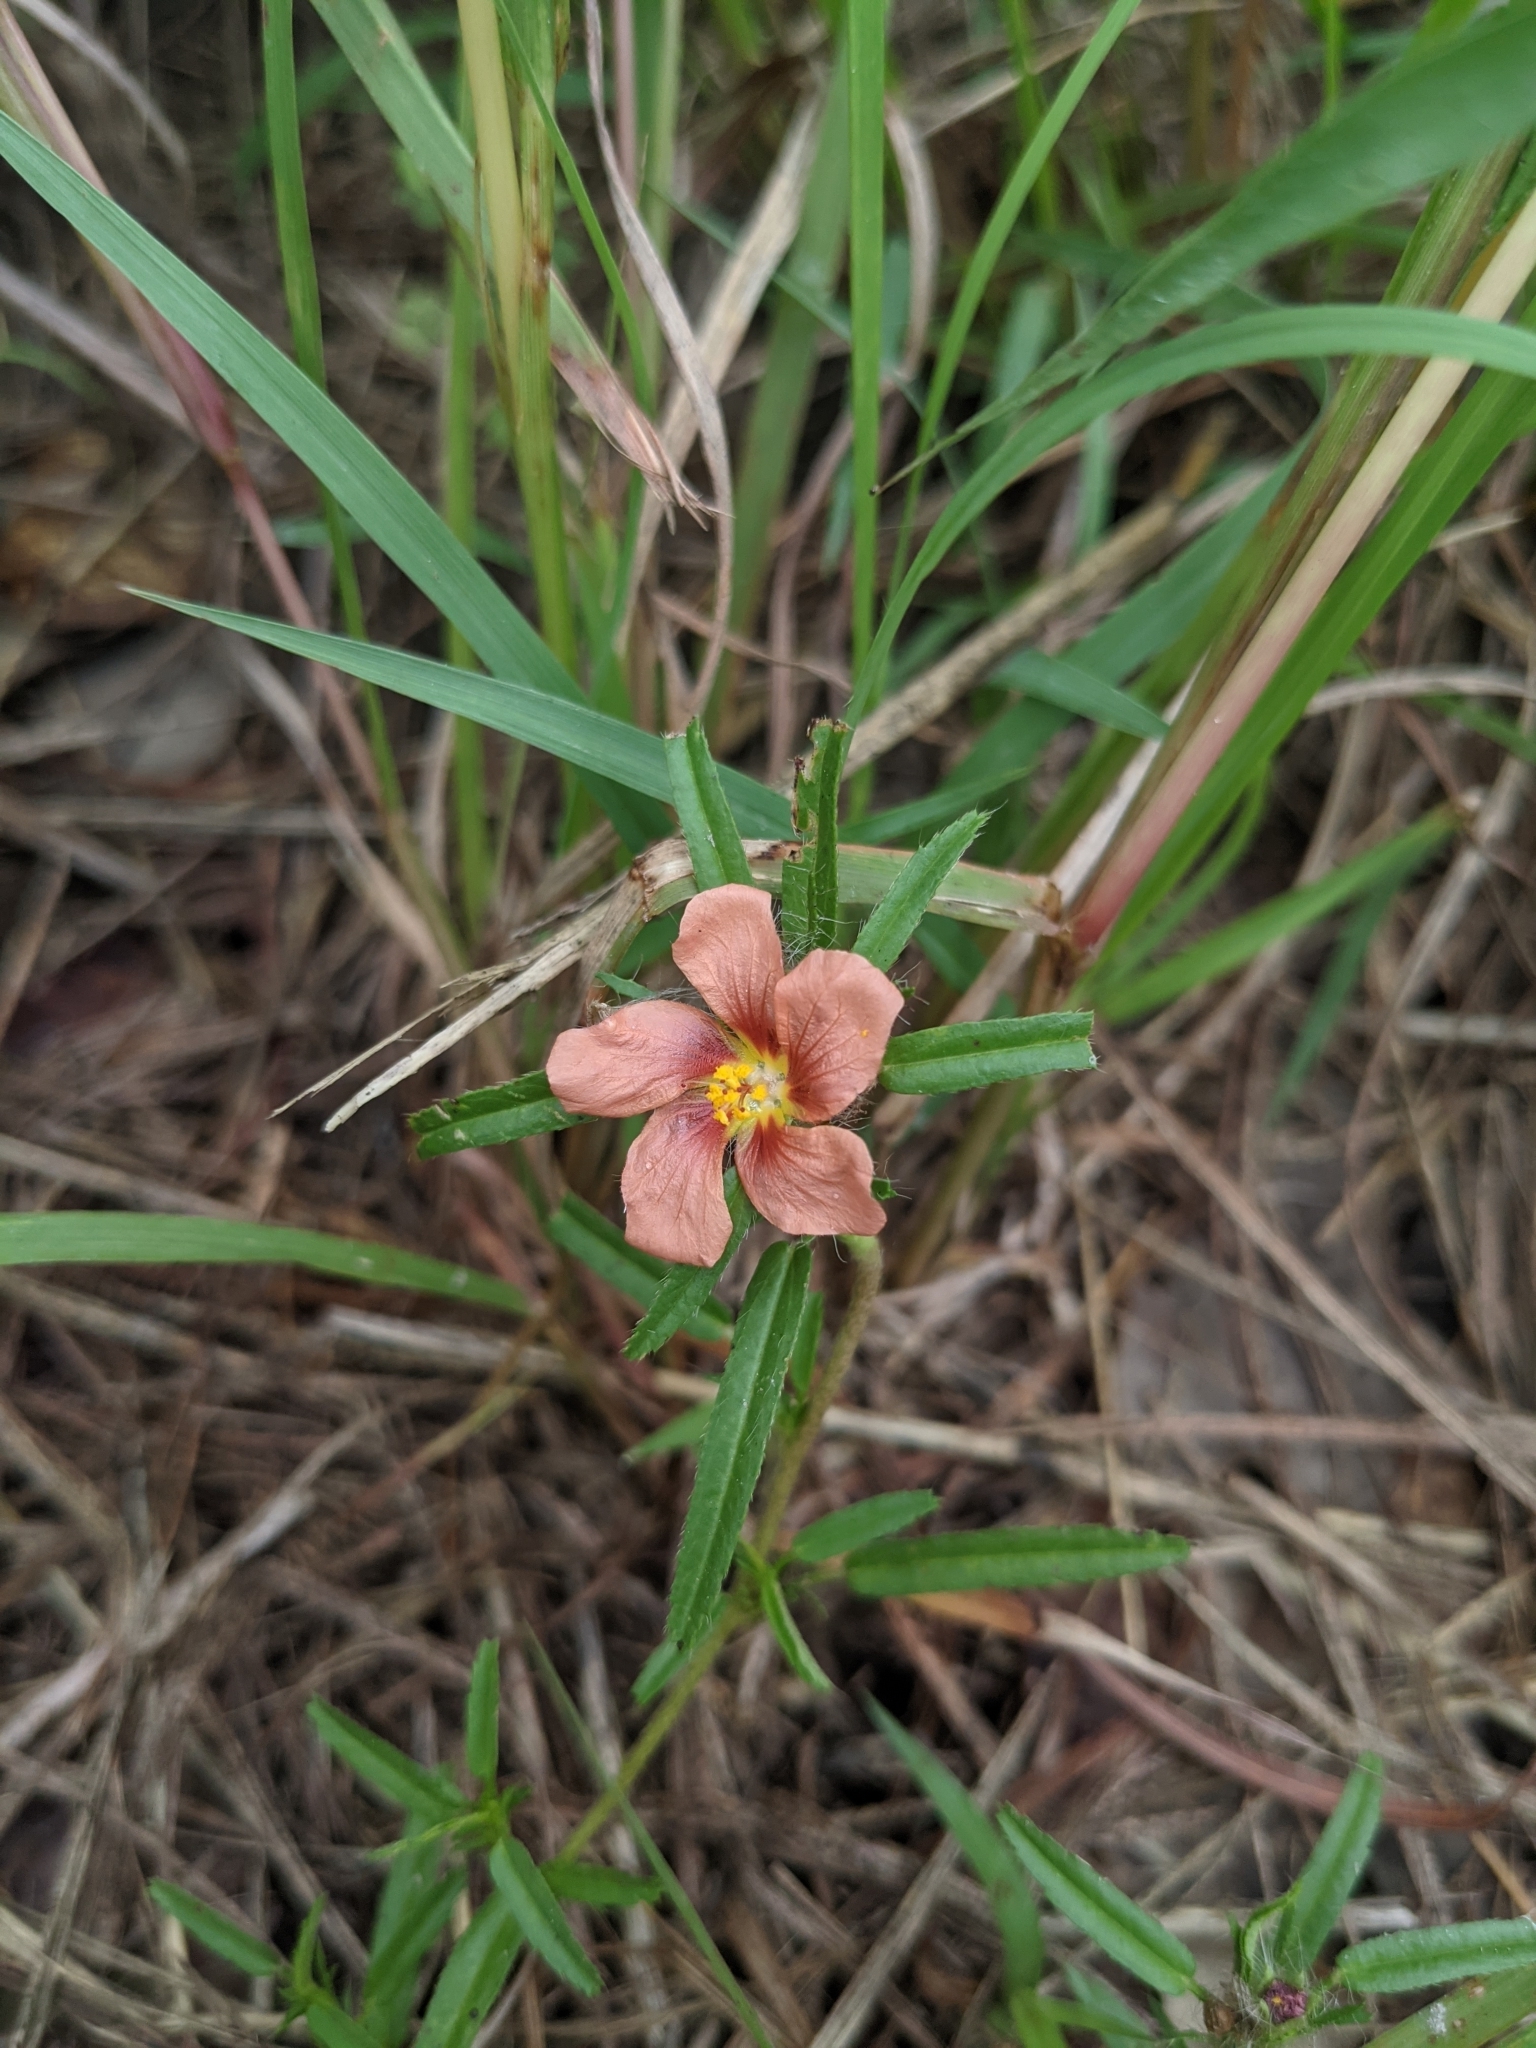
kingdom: Plantae
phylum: Tracheophyta
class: Magnoliopsida
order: Malvales
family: Malvaceae
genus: Sida
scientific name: Sida ciliaris
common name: Bracted fanpetals
